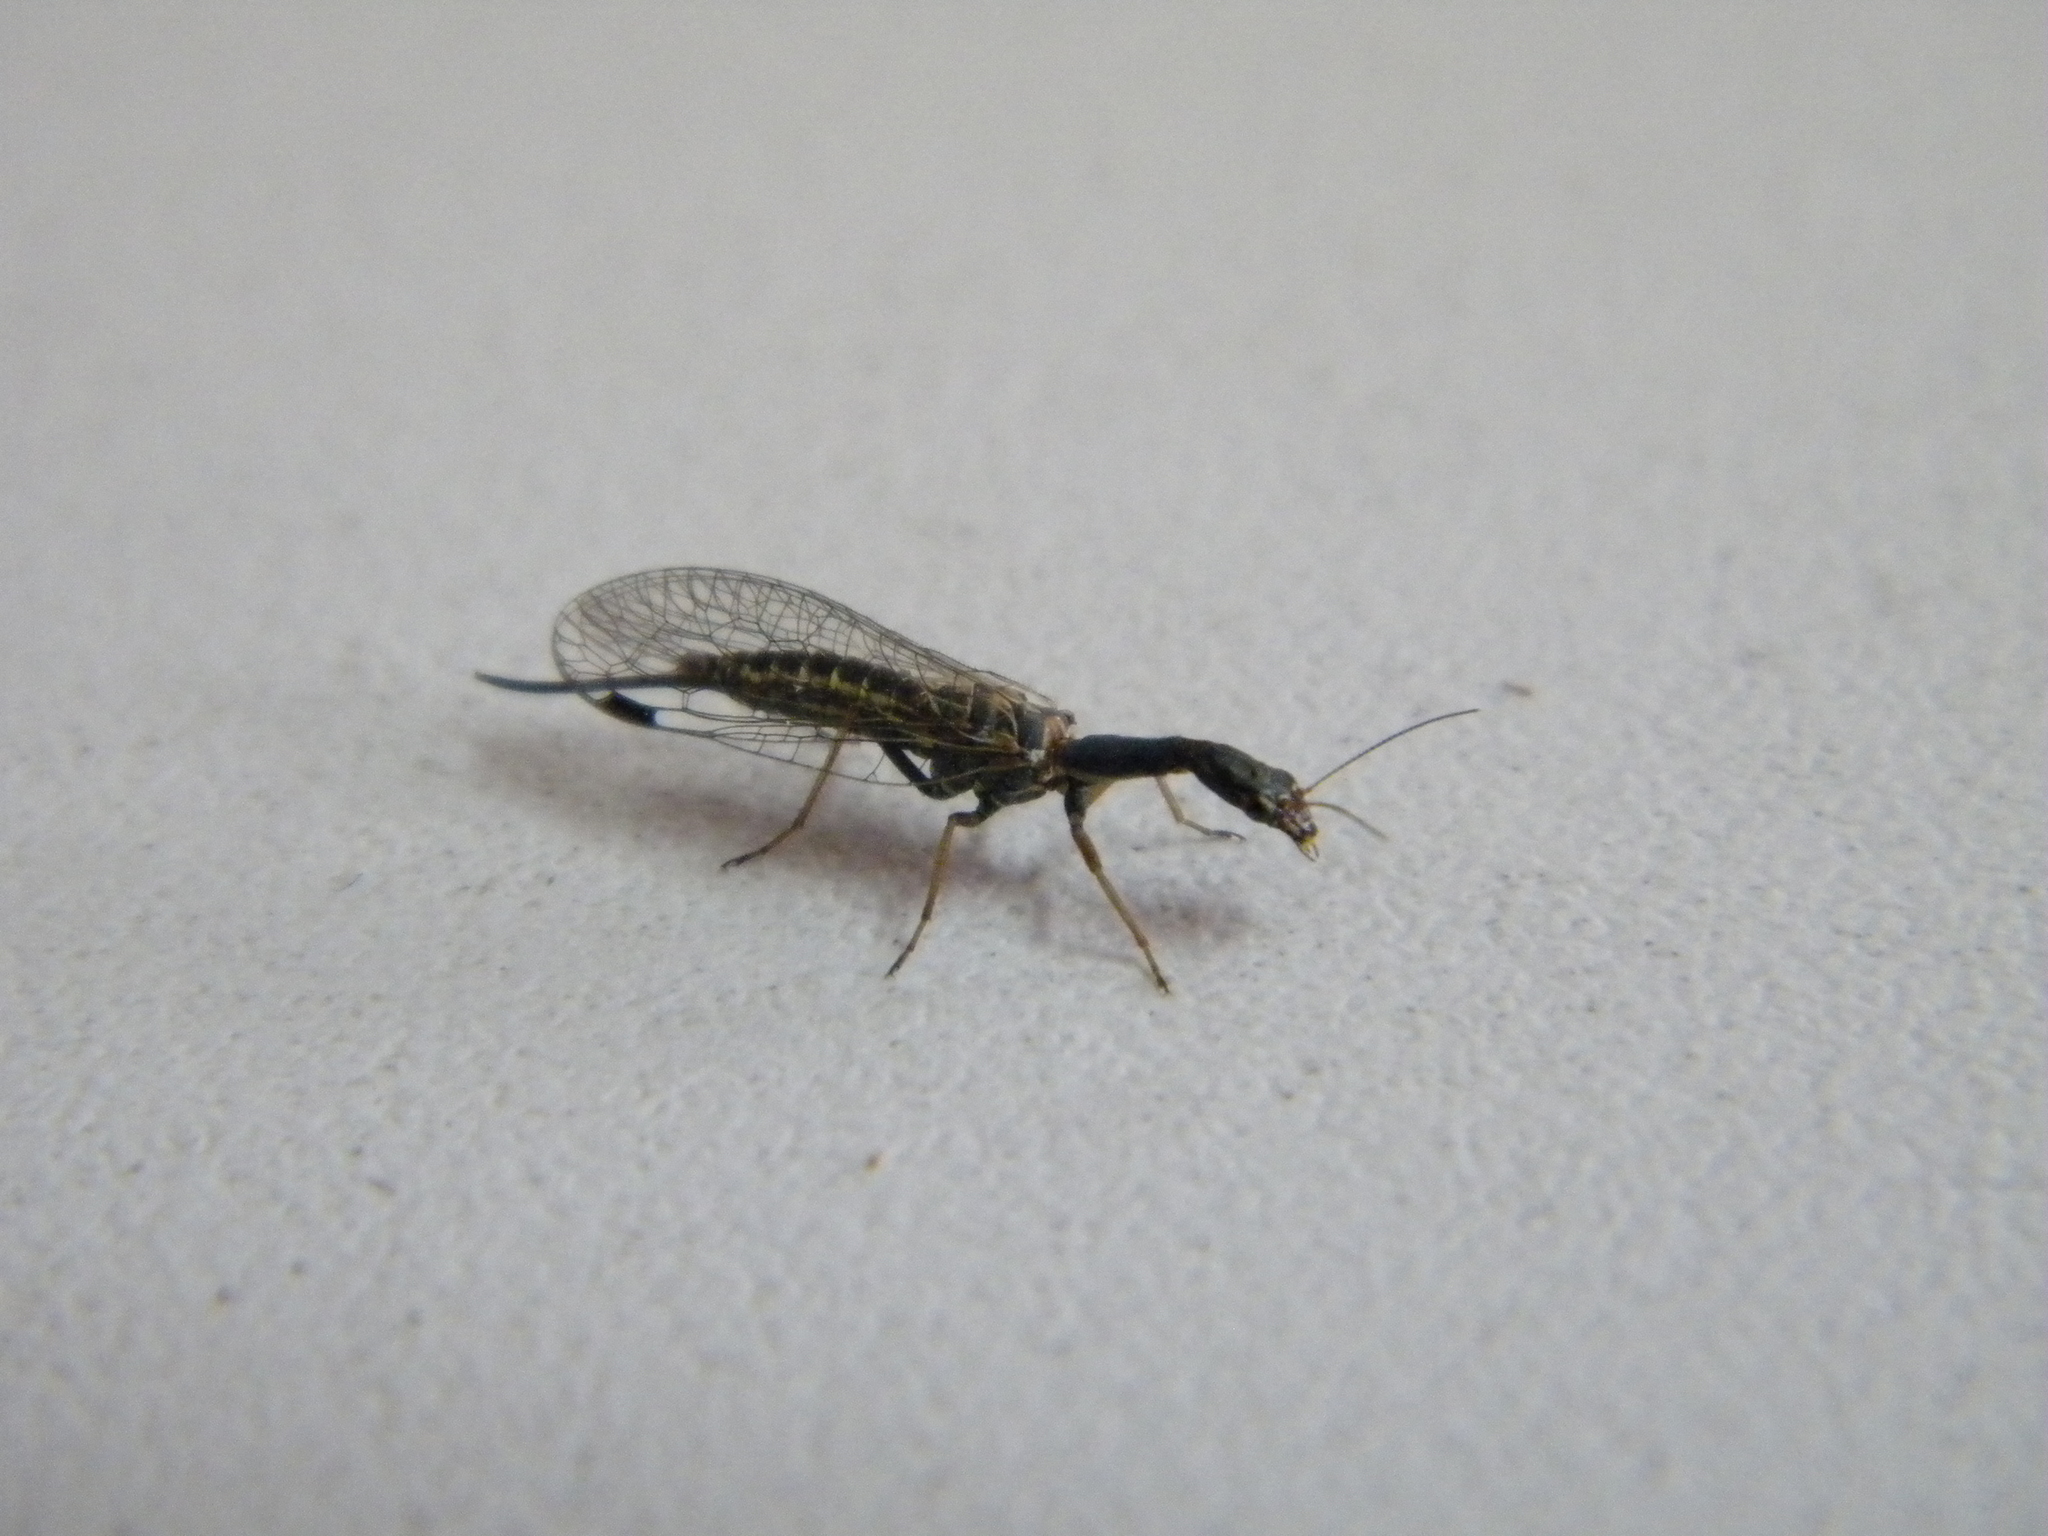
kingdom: Animalia
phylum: Arthropoda
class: Insecta
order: Raphidioptera
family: Raphidiidae
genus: Raphidia
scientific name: Raphidia mediterranea
